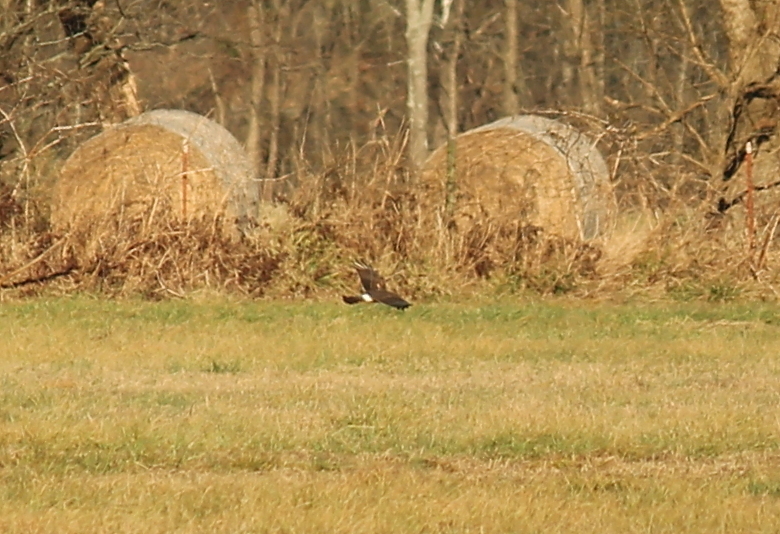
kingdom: Animalia
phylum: Chordata
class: Aves
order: Accipitriformes
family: Accipitridae
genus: Circus
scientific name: Circus cyaneus
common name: Hen harrier
